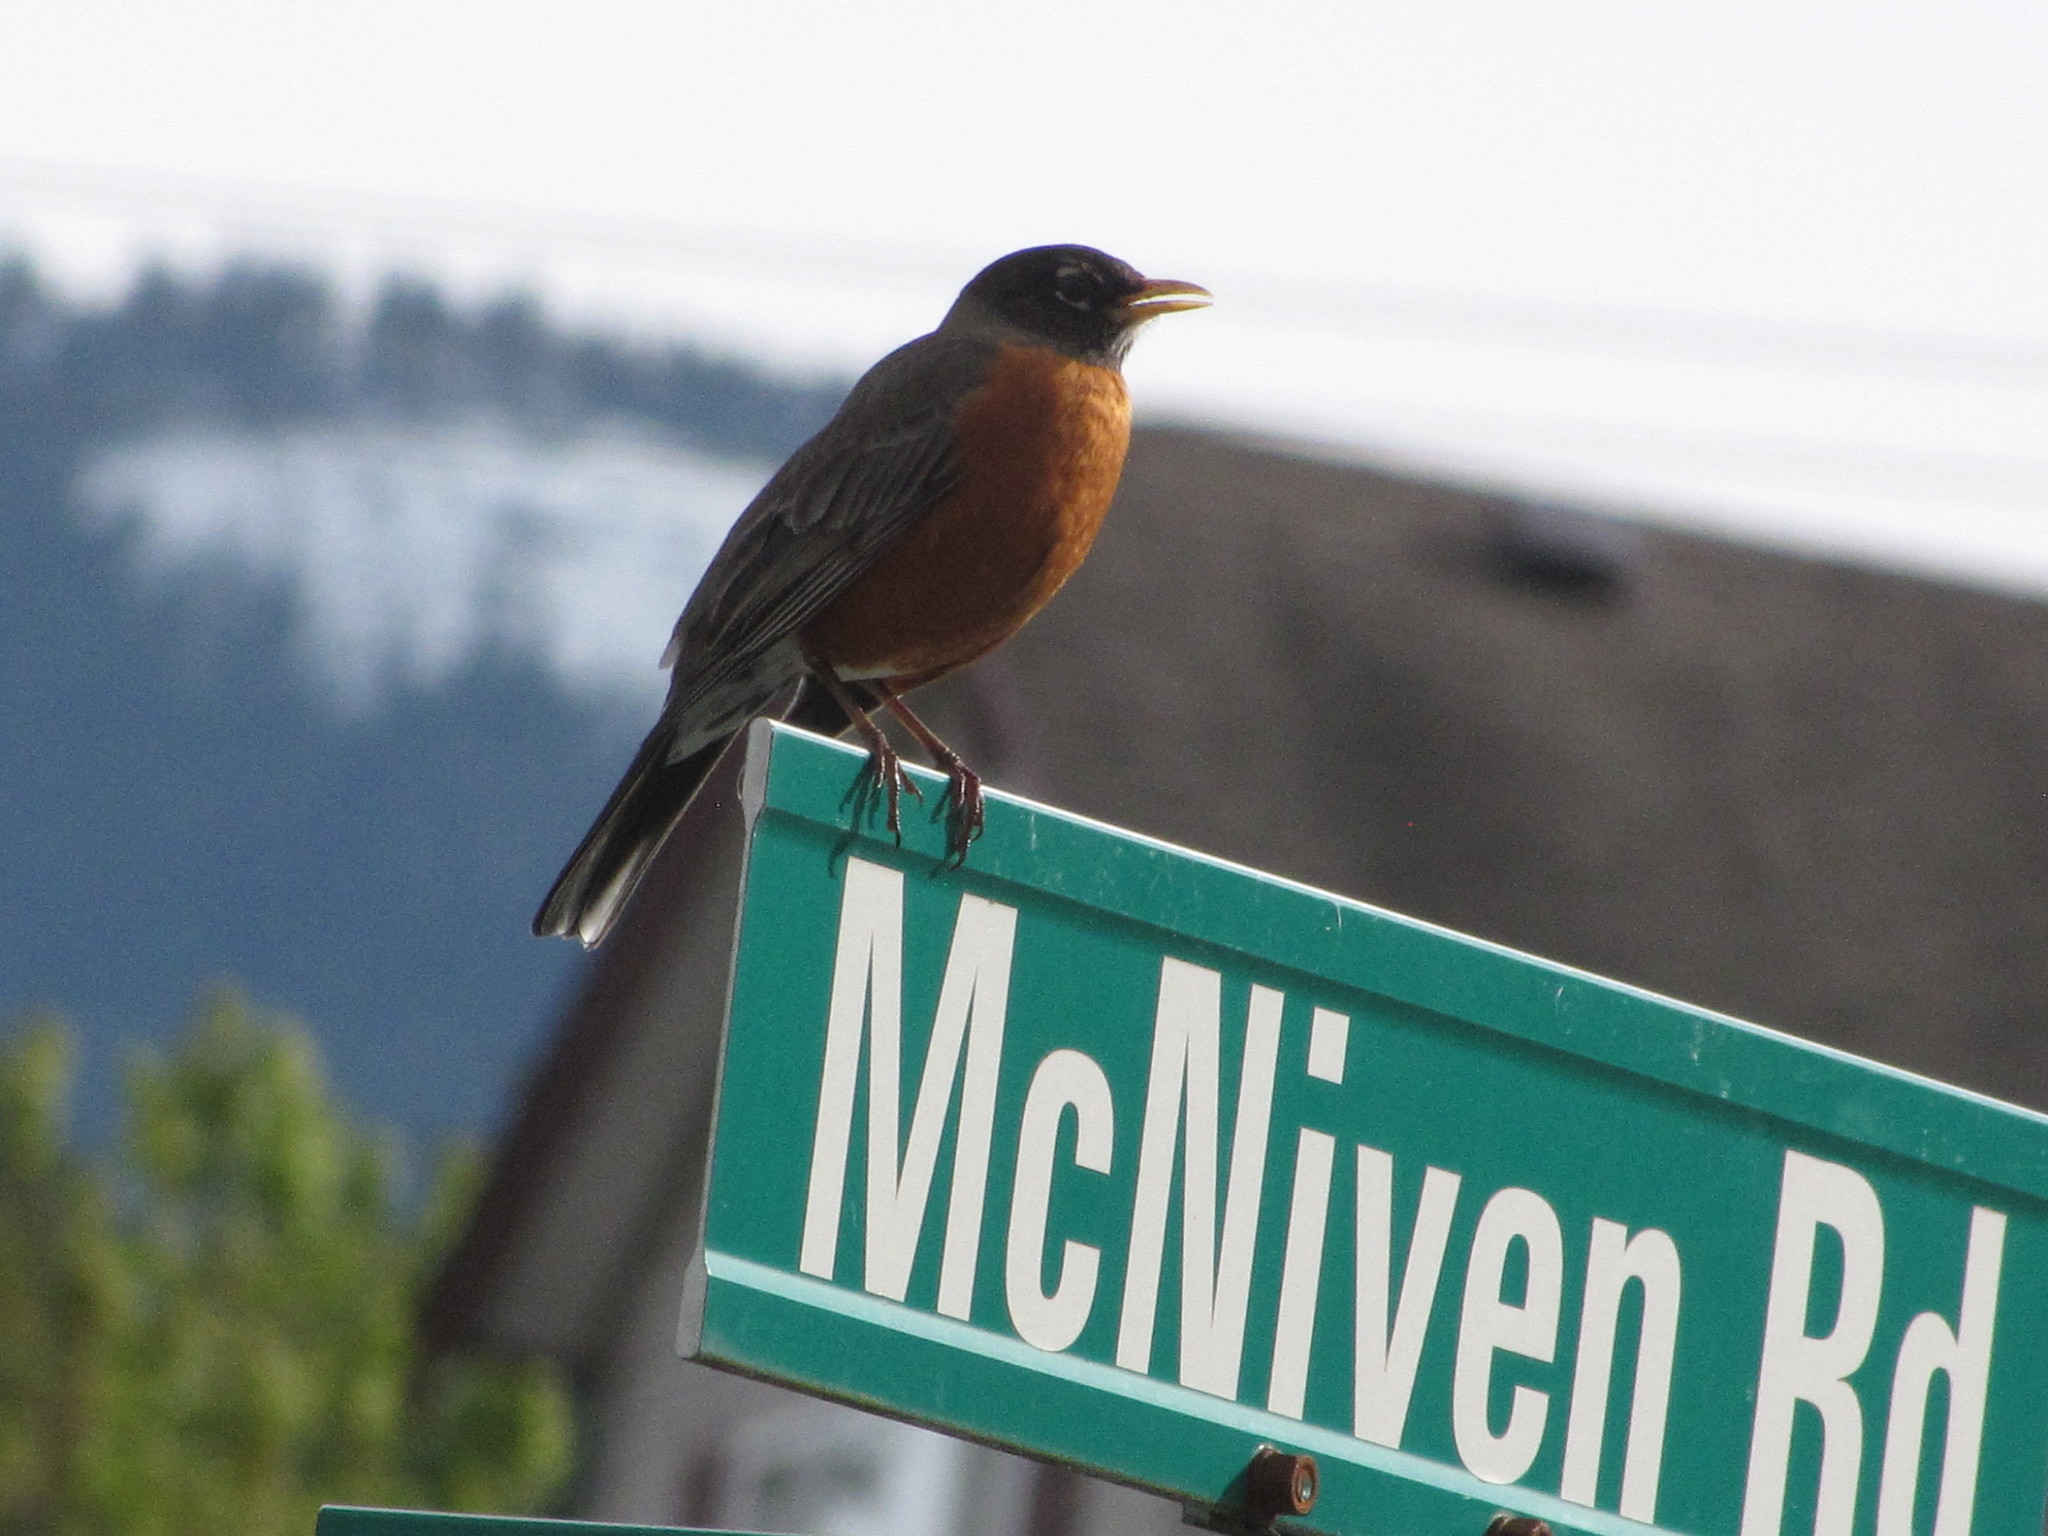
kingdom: Animalia
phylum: Chordata
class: Aves
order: Passeriformes
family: Turdidae
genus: Turdus
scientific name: Turdus migratorius
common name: American robin
